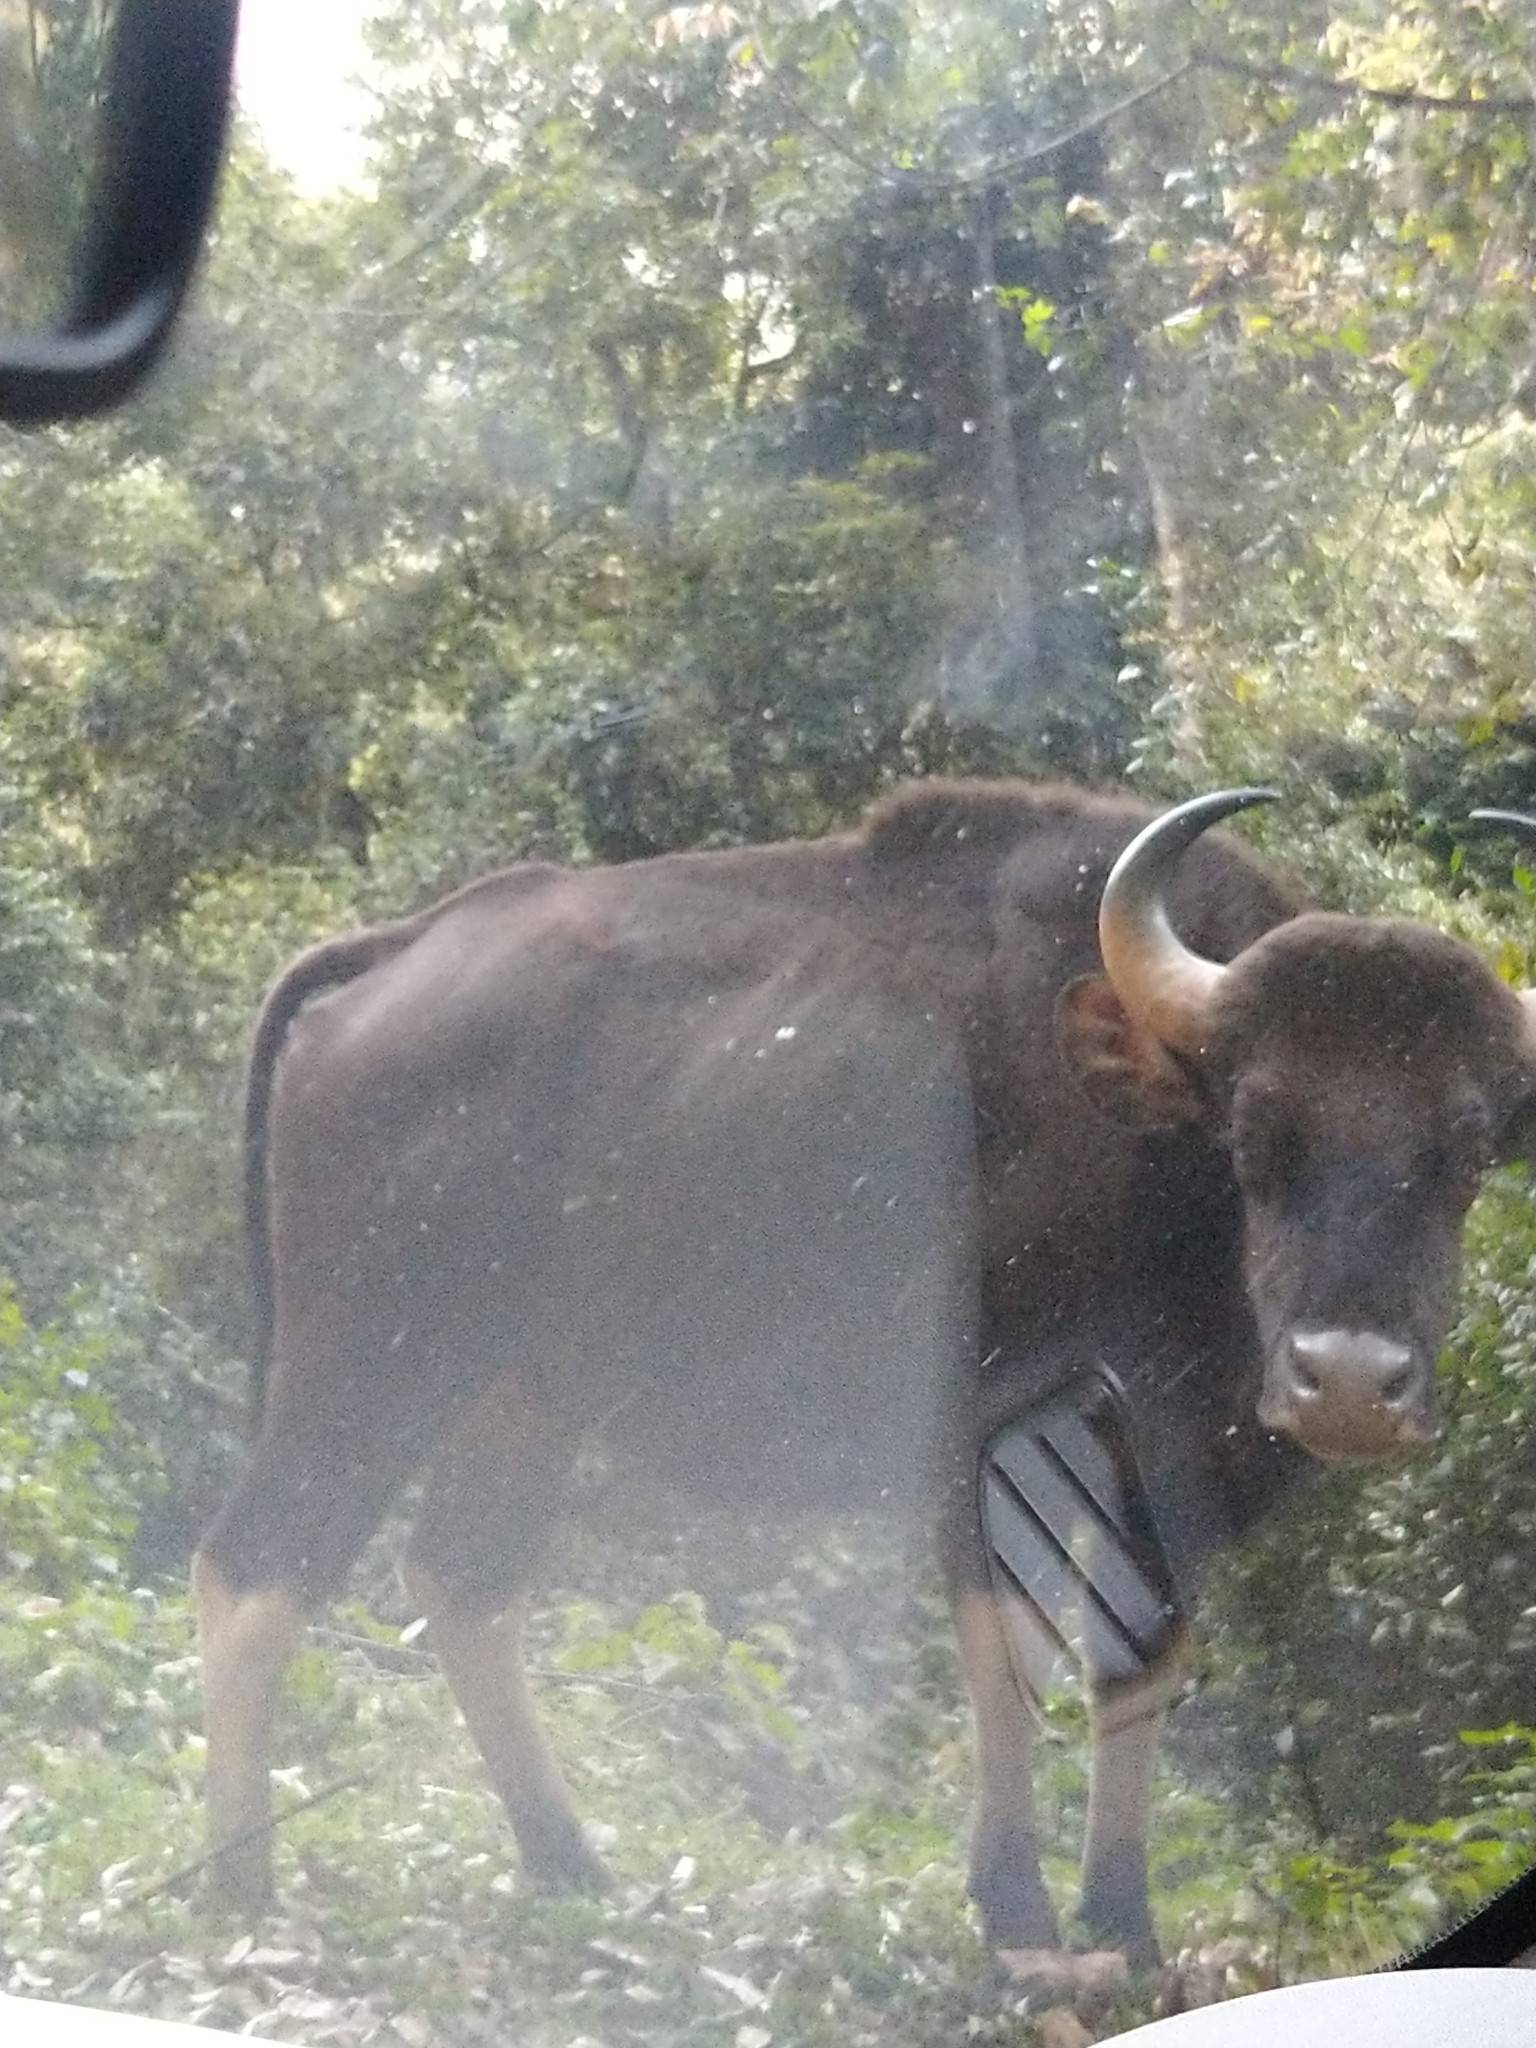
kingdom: Animalia
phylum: Chordata
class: Mammalia
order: Artiodactyla
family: Bovidae
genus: Bos
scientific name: Bos frontalis
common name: Gaur
